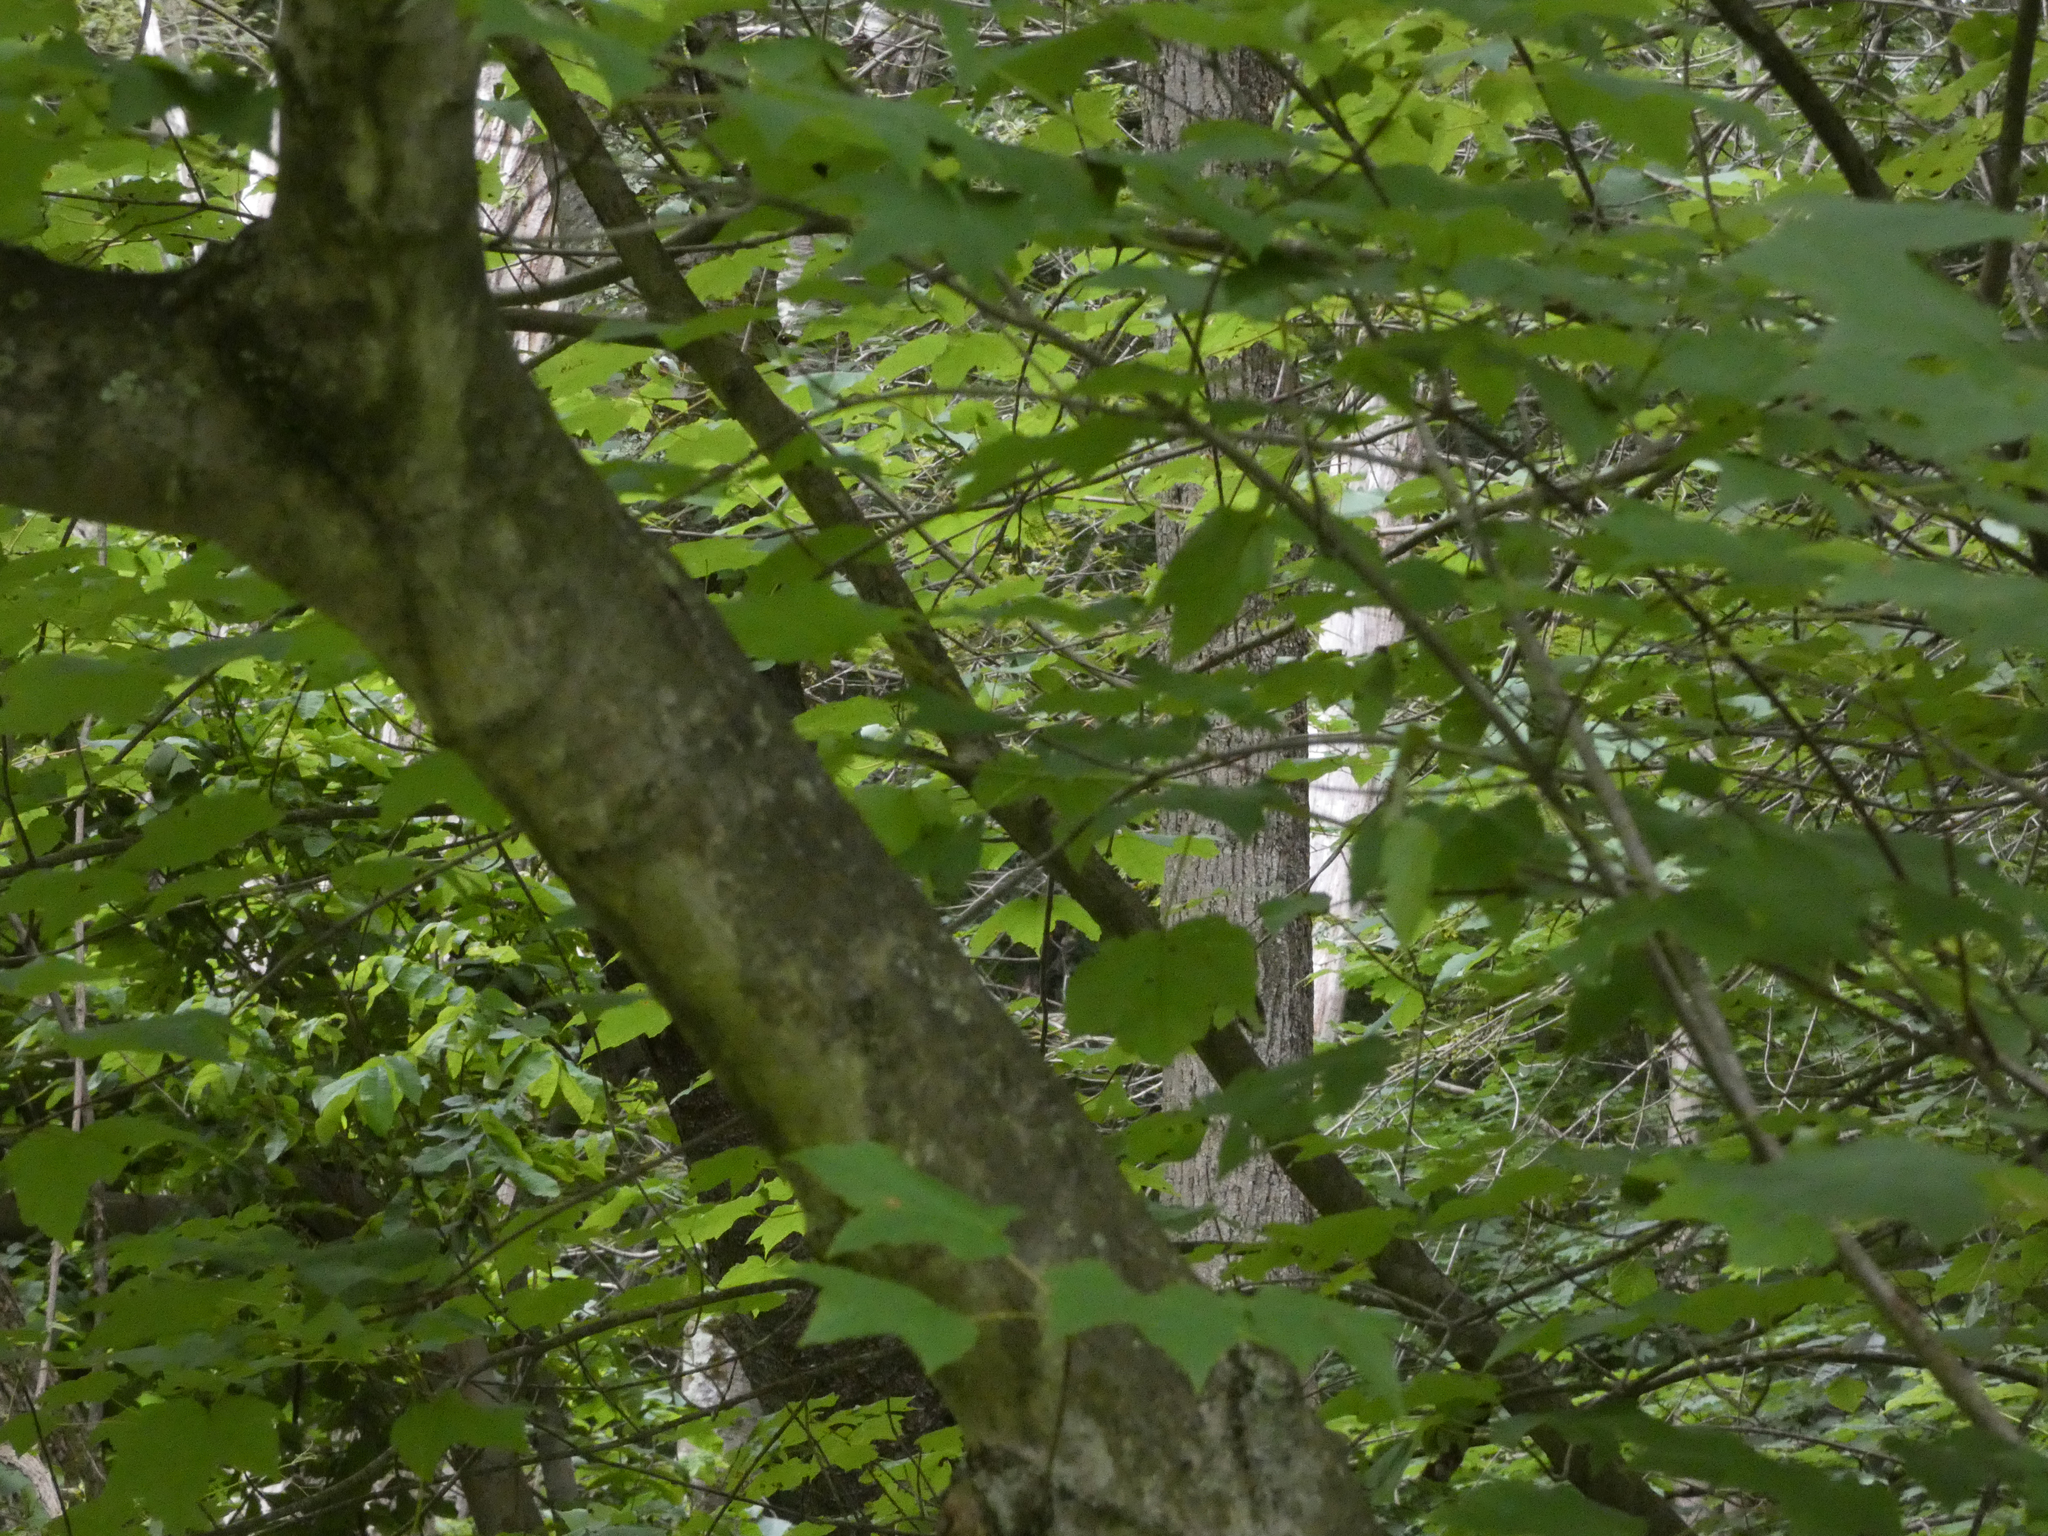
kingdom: Plantae
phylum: Tracheophyta
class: Magnoliopsida
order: Sapindales
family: Sapindaceae
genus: Acer
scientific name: Acer rubrum
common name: Red maple
